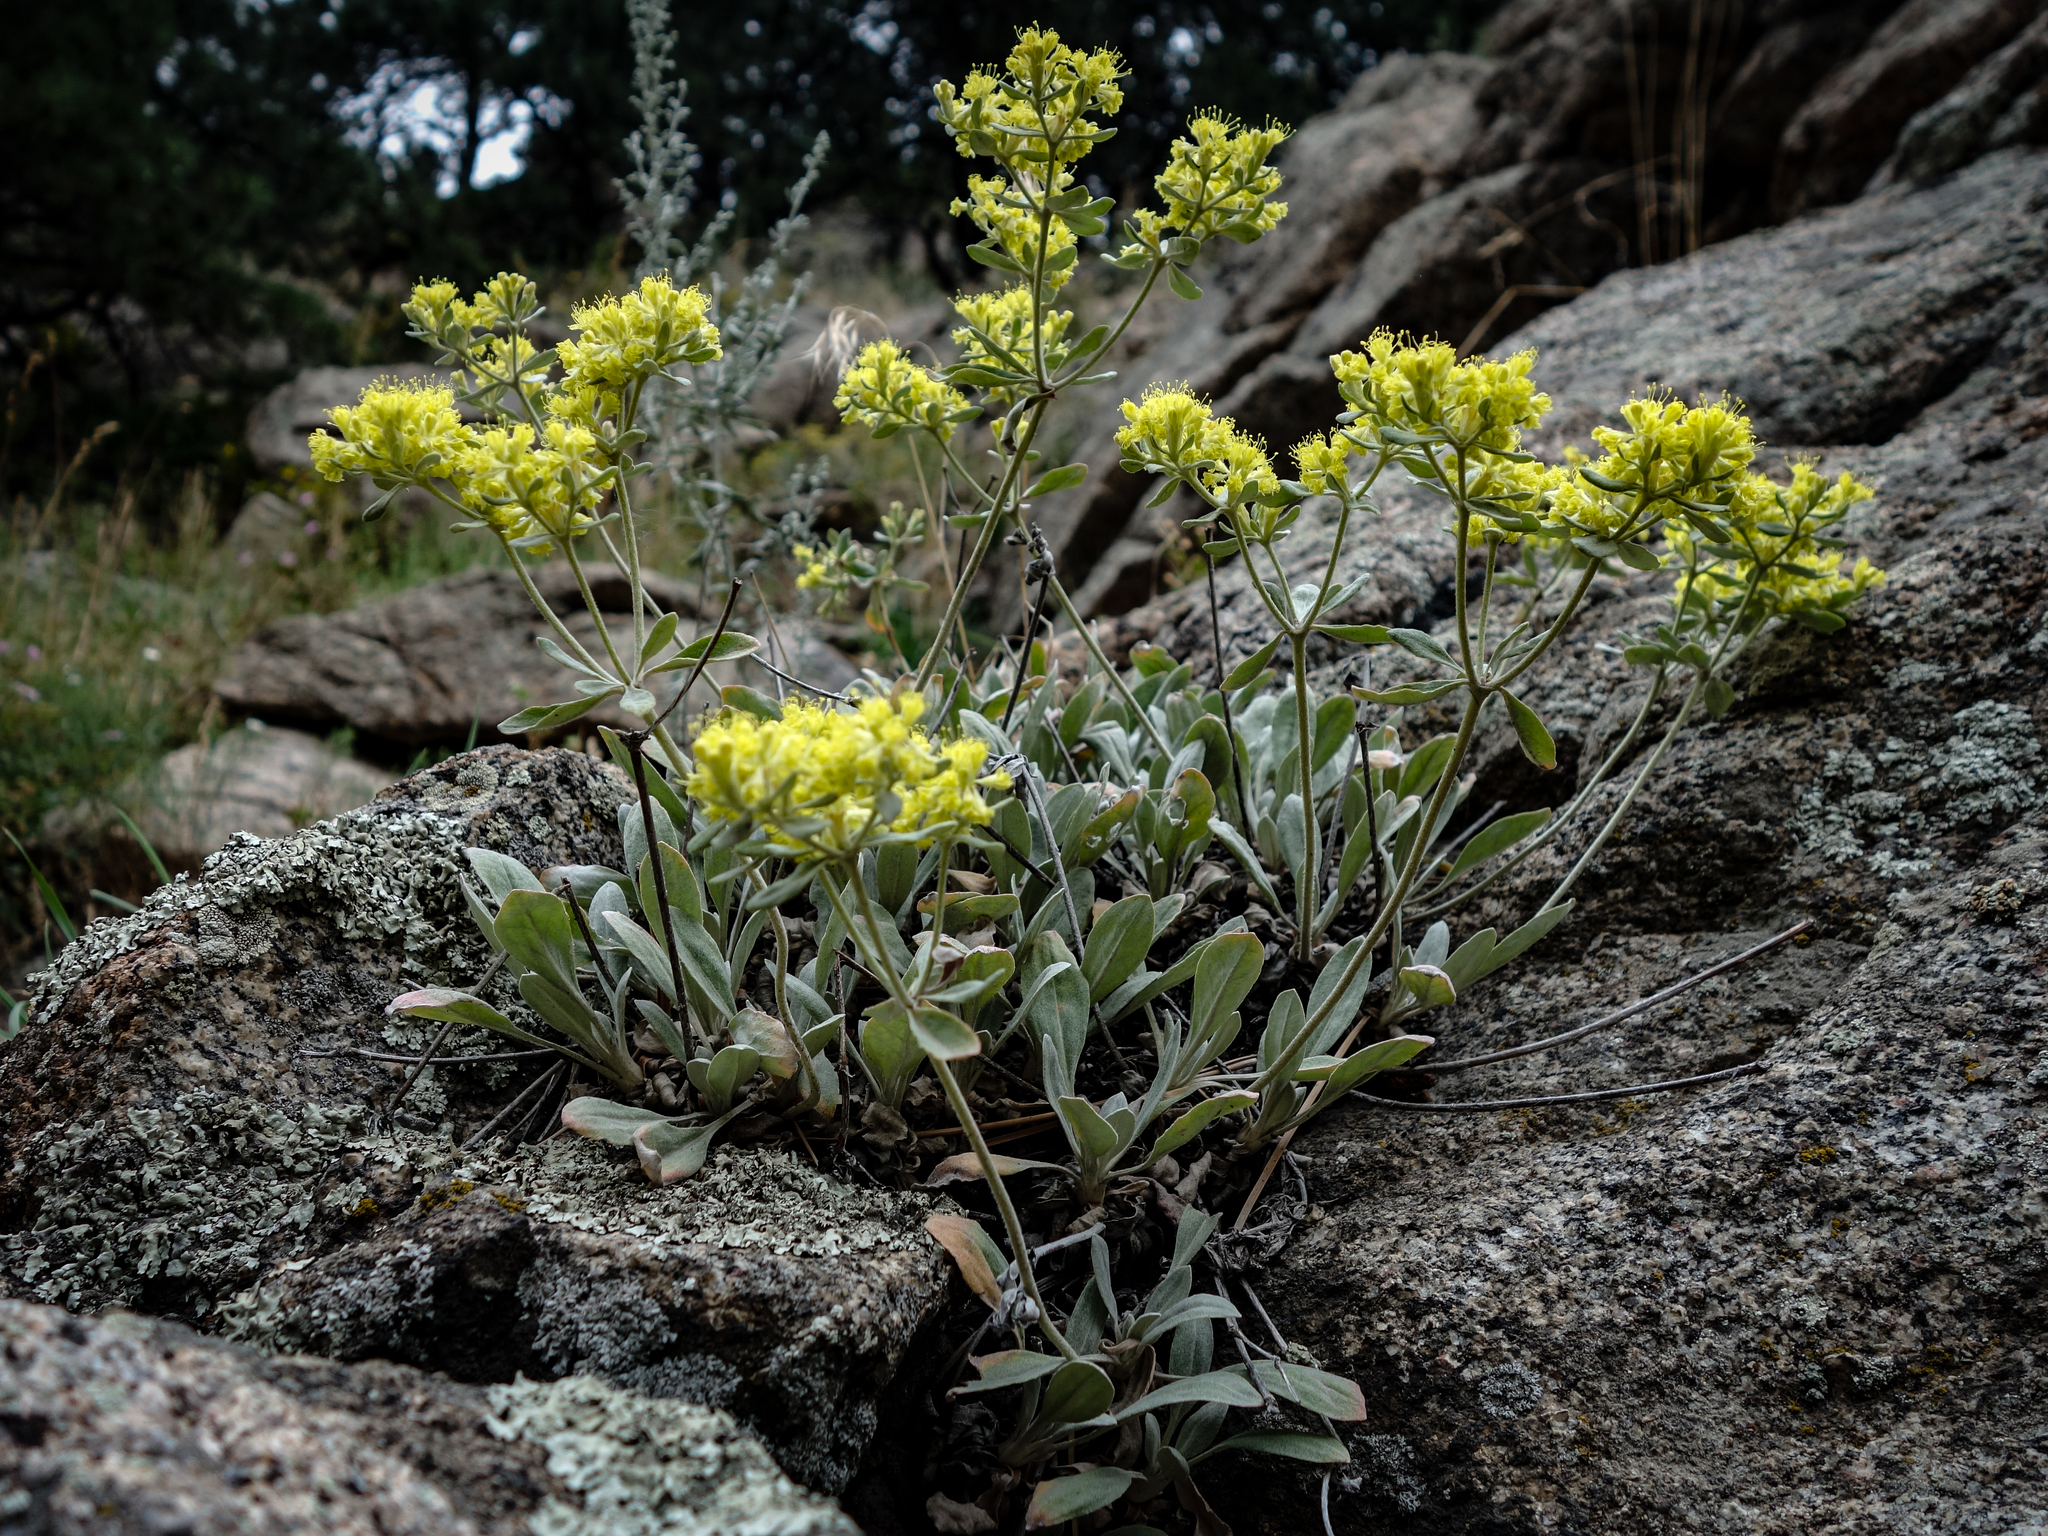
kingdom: Plantae
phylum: Tracheophyta
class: Magnoliopsida
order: Caryophyllales
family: Polygonaceae
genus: Eriogonum
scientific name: Eriogonum umbellatum
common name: Sulfur-buckwheat
